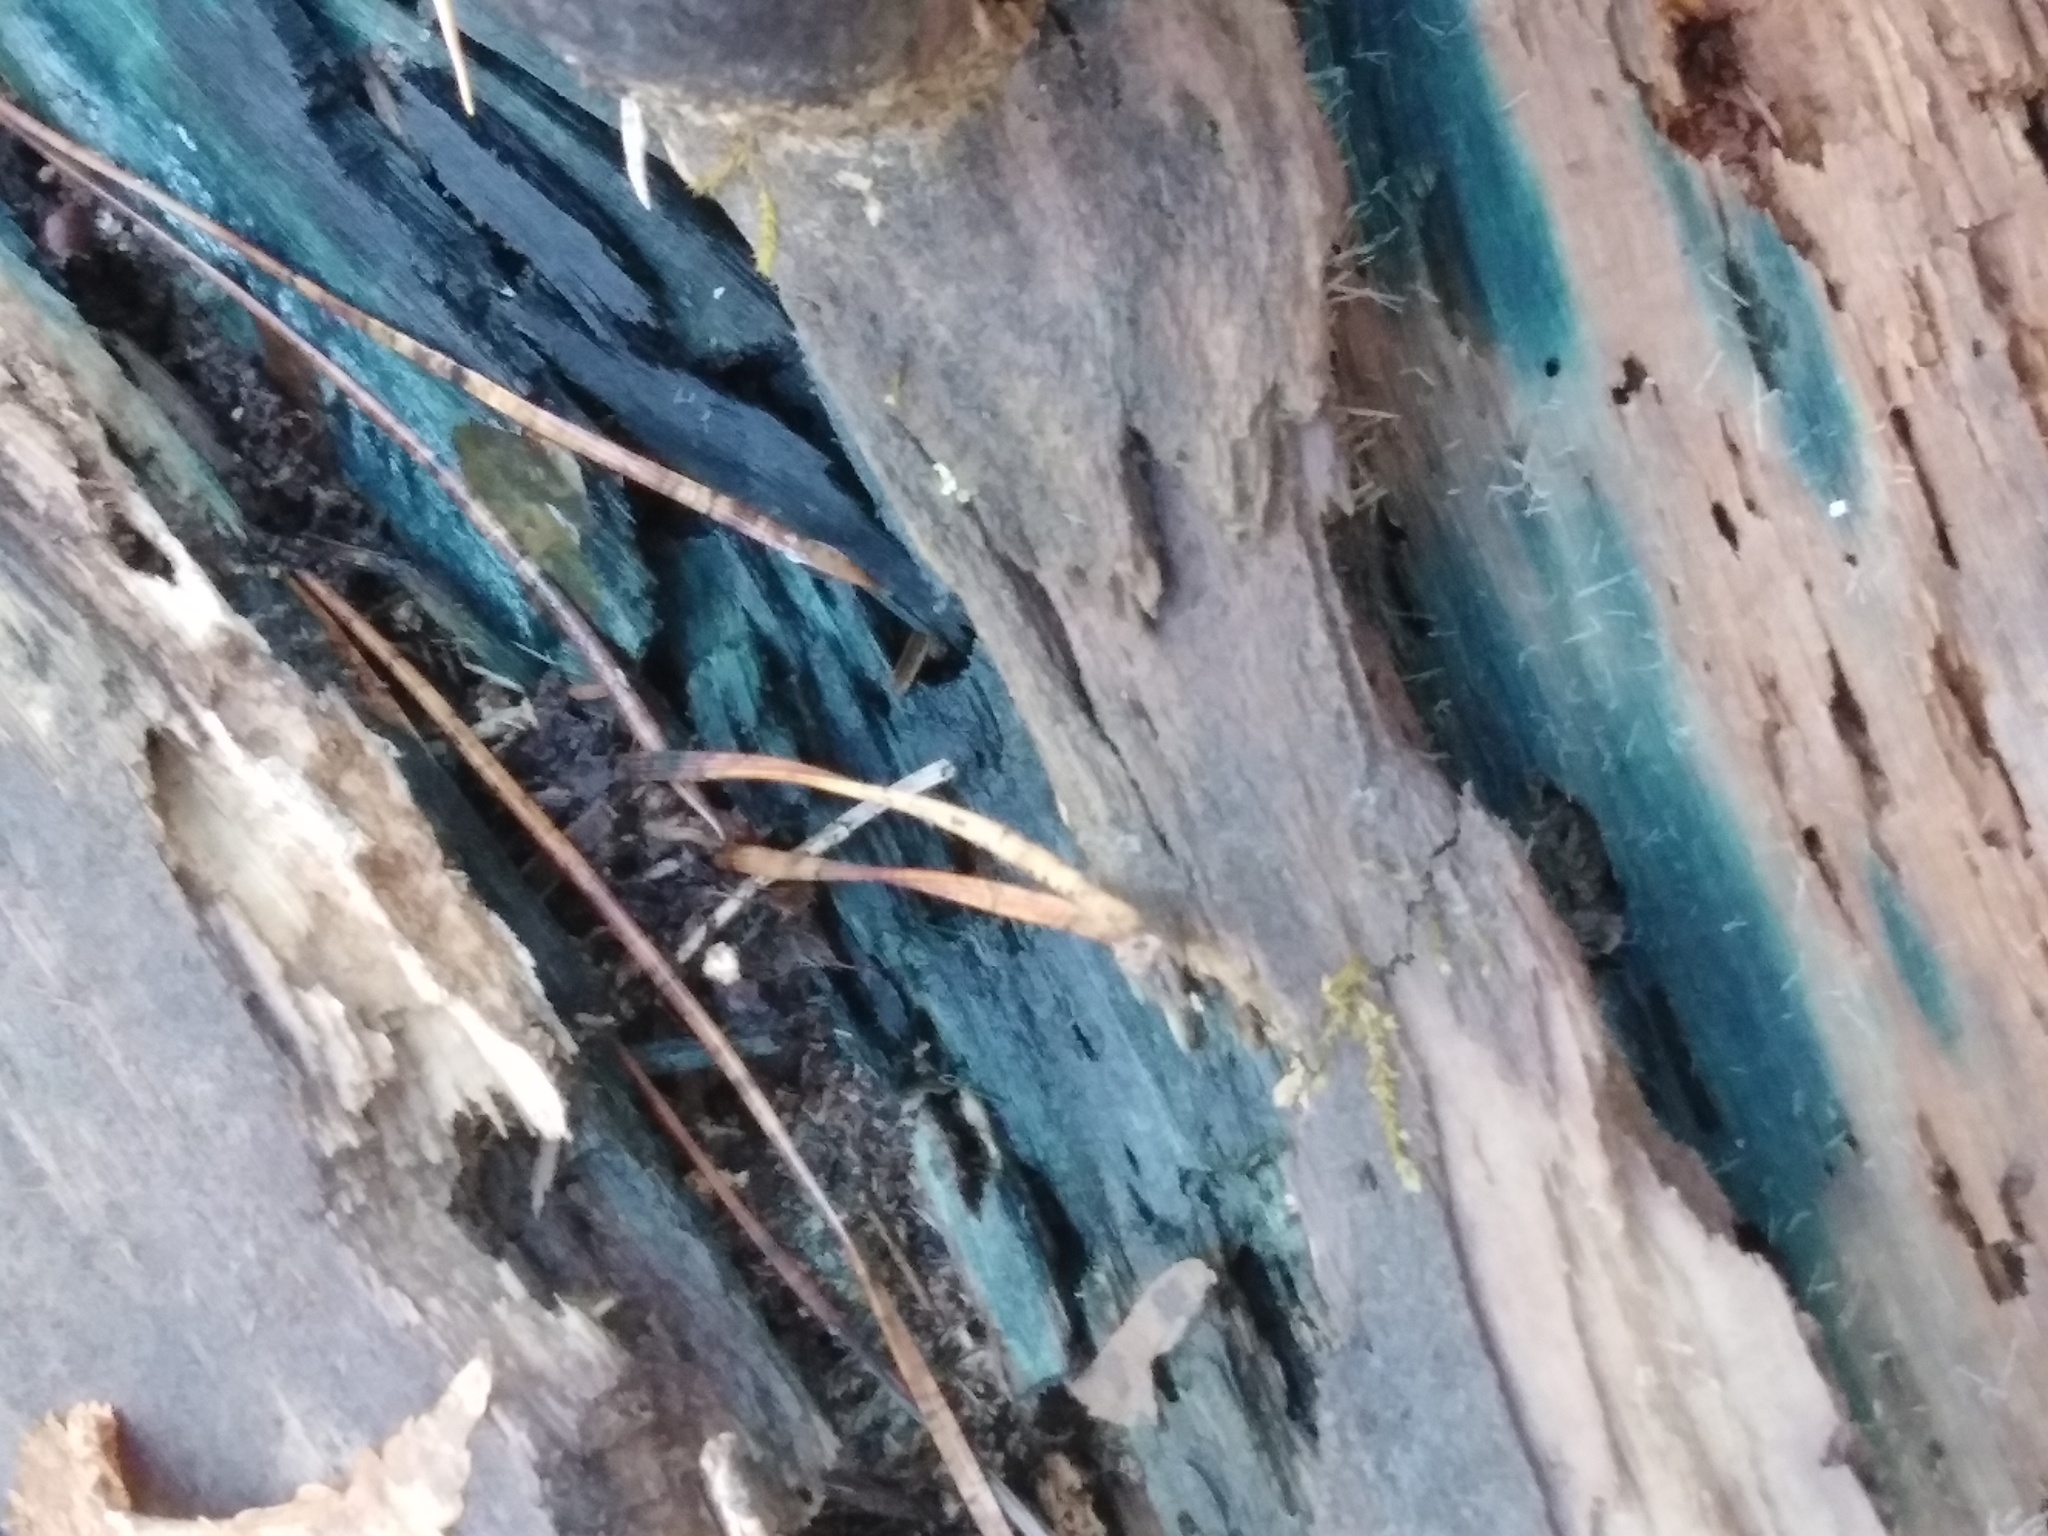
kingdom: Fungi
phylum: Ascomycota
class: Leotiomycetes
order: Helotiales
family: Chlorociboriaceae
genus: Chlorociboria
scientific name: Chlorociboria
